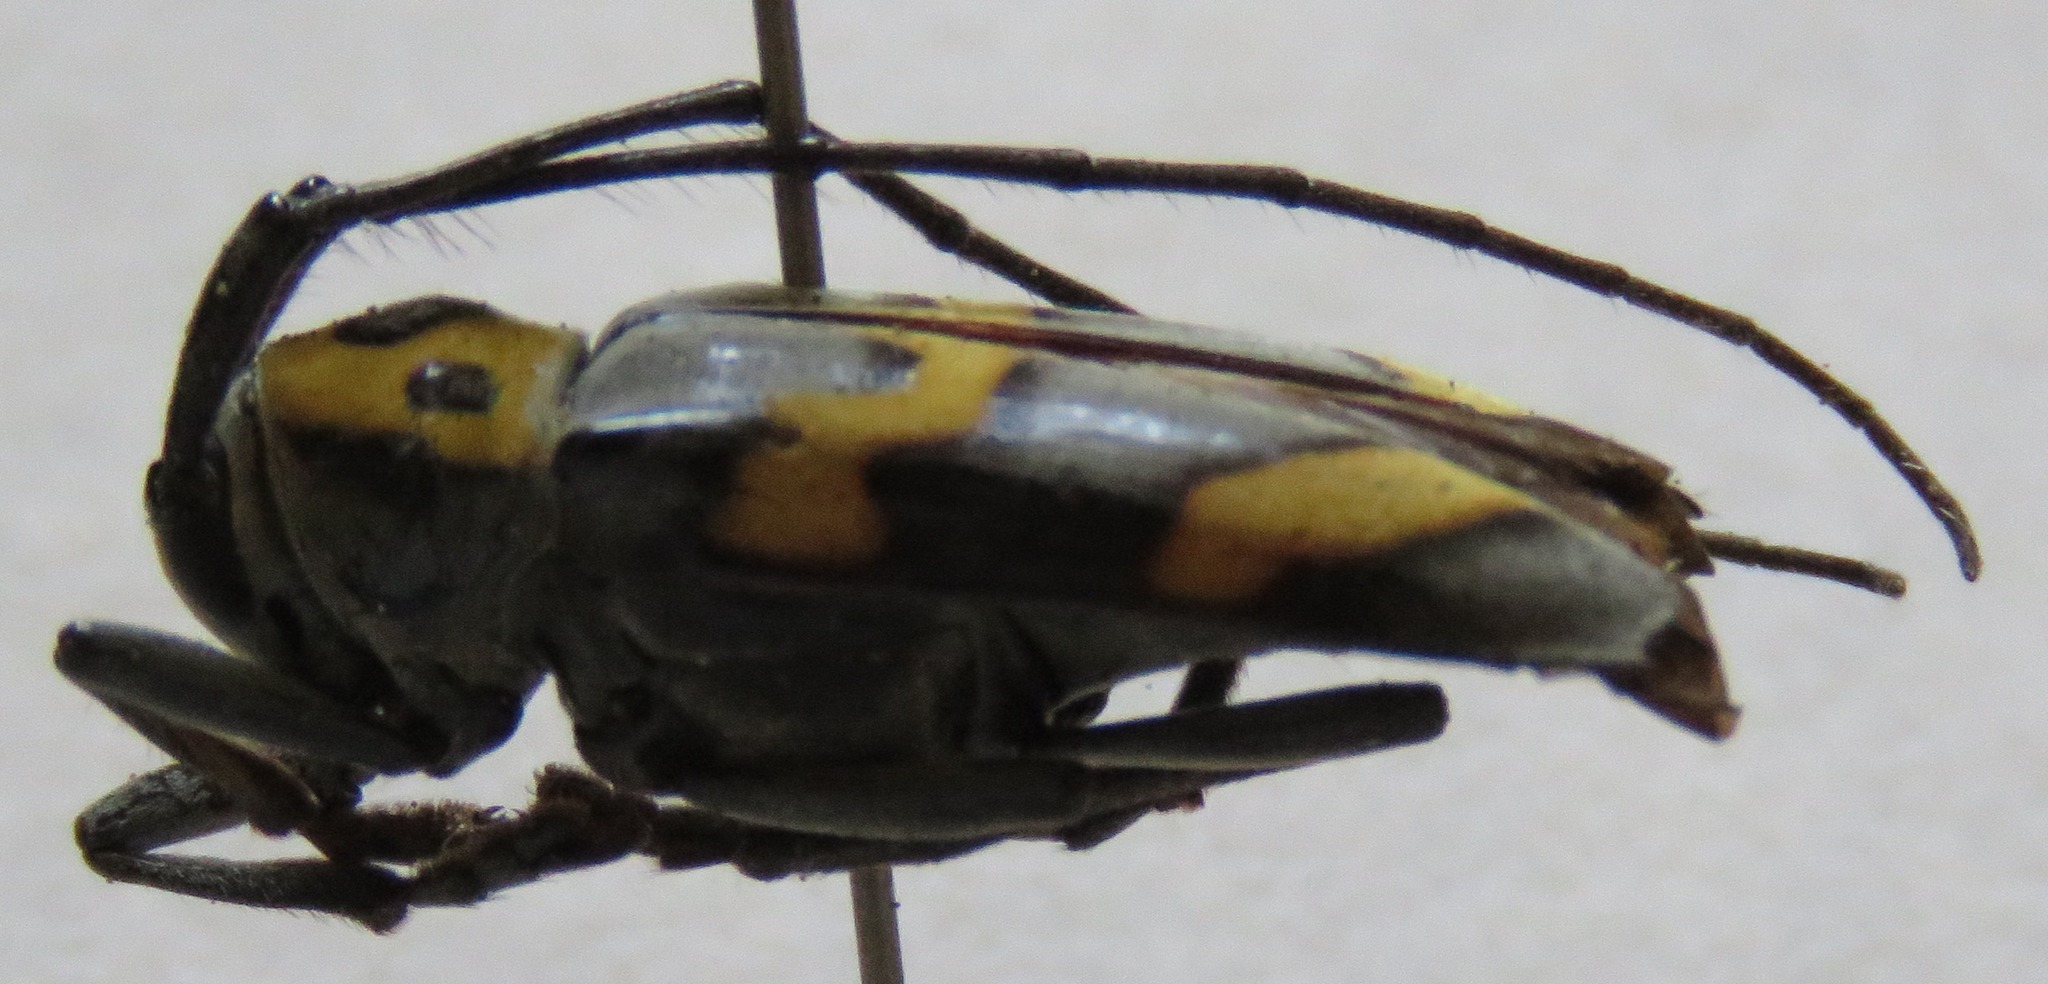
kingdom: Animalia
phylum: Arthropoda
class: Insecta
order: Coleoptera
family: Cerambycidae
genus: Oedudes
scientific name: Oedudes bifasciatus
